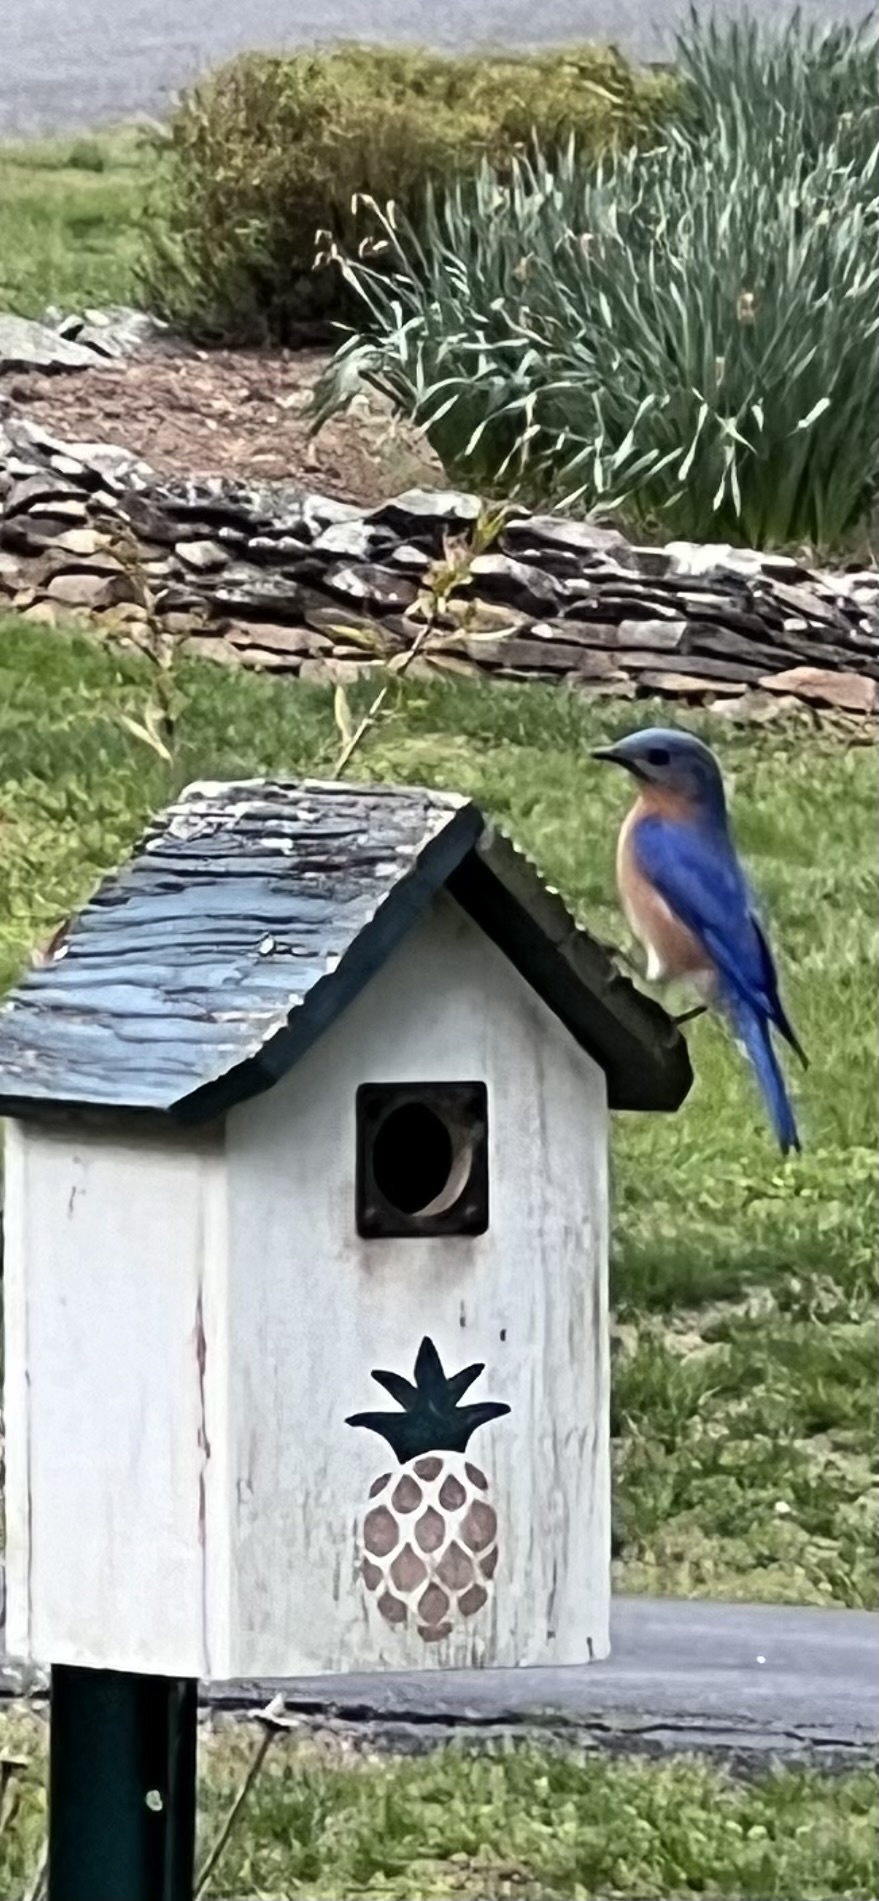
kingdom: Animalia
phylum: Chordata
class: Aves
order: Passeriformes
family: Turdidae
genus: Sialia
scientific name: Sialia sialis
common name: Eastern bluebird
